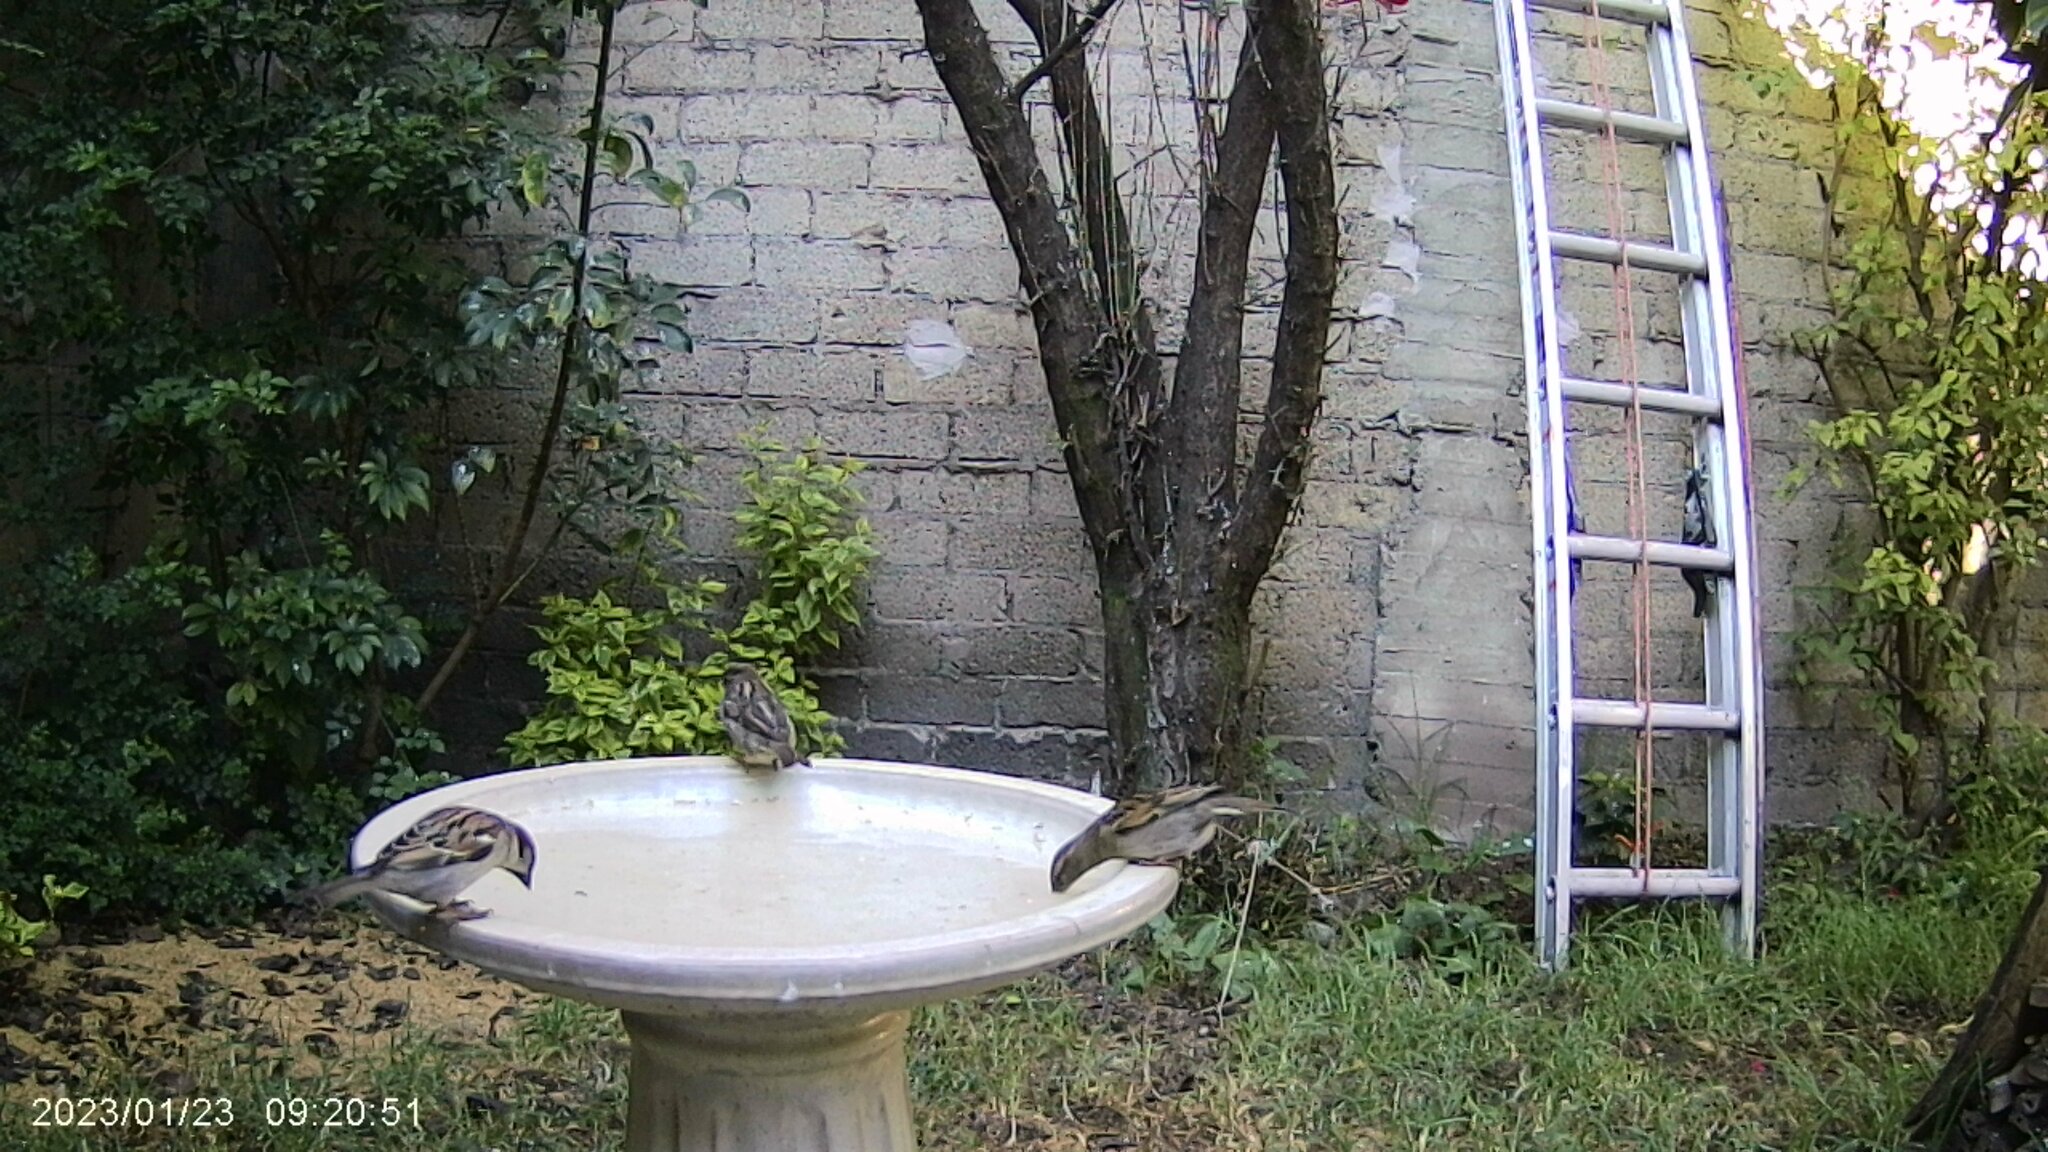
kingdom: Animalia
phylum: Chordata
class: Aves
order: Passeriformes
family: Passeridae
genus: Passer
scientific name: Passer domesticus
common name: House sparrow
